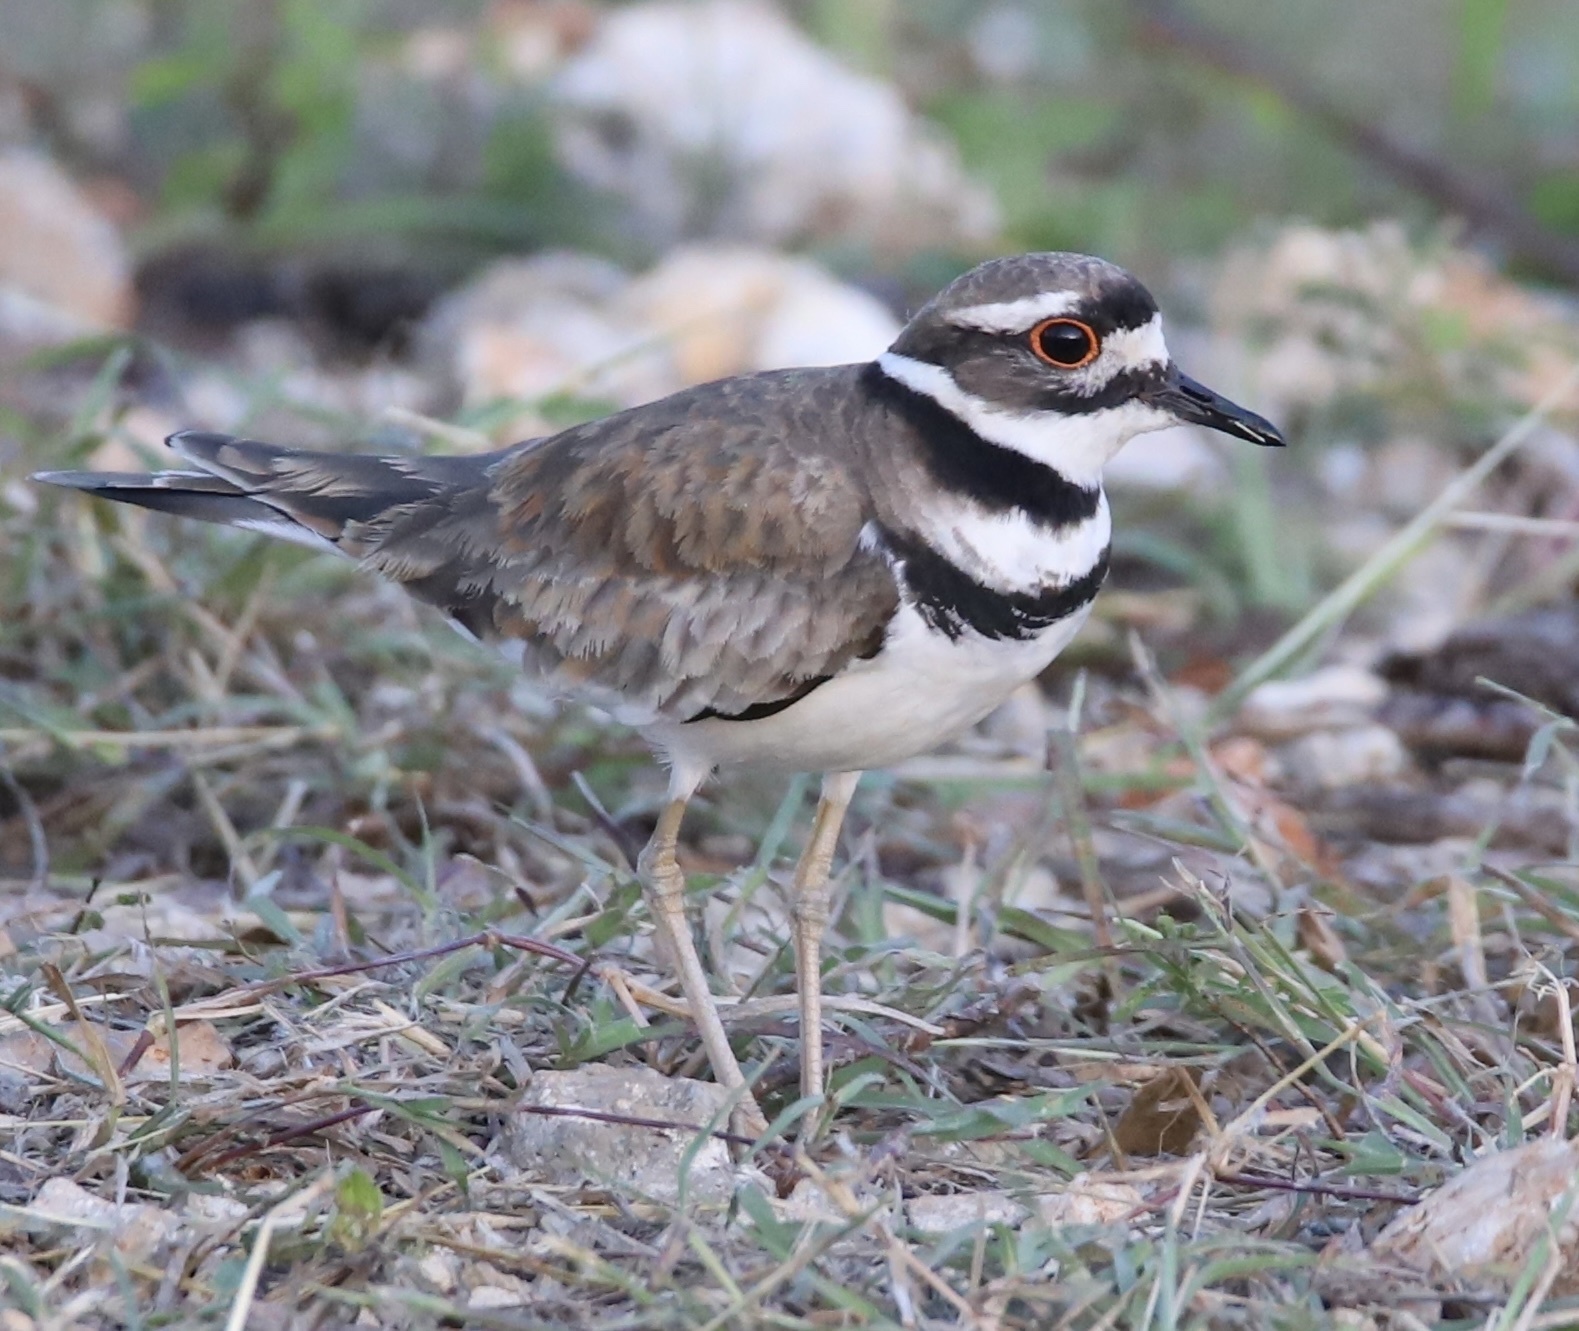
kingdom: Animalia
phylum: Chordata
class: Aves
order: Charadriiformes
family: Charadriidae
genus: Charadrius
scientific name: Charadrius vociferus
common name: Killdeer
